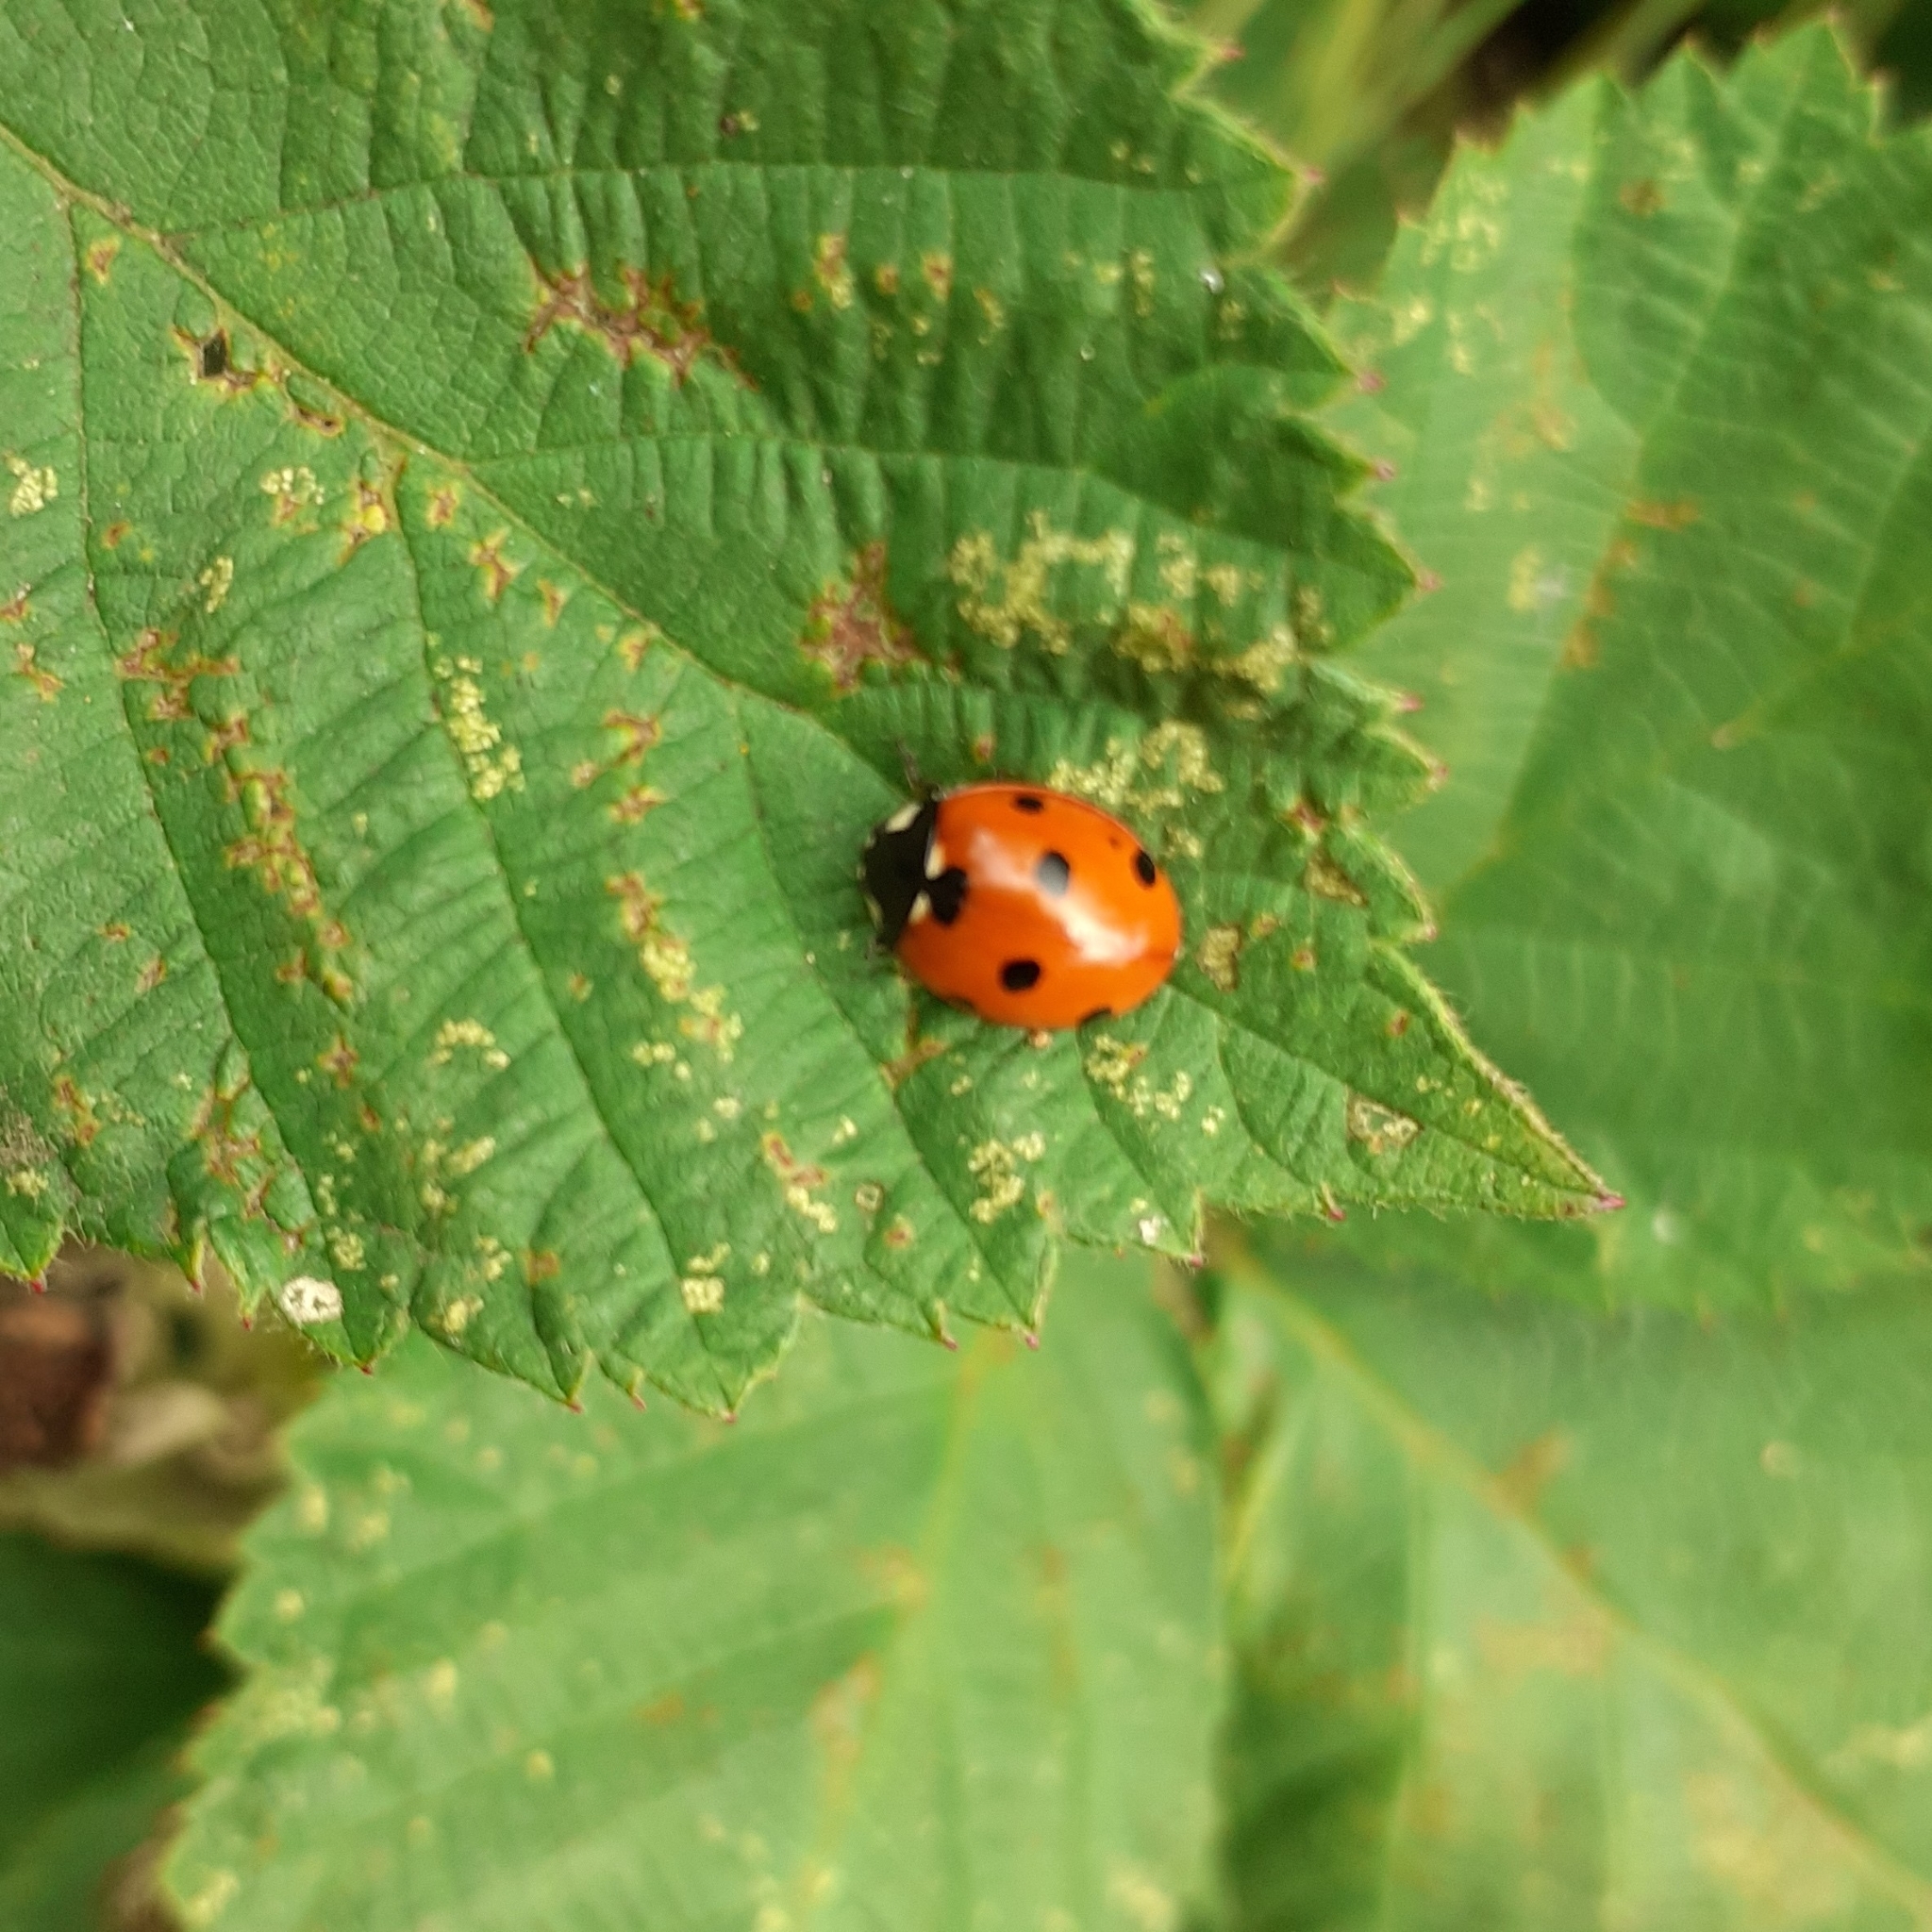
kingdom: Animalia
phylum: Arthropoda
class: Insecta
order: Coleoptera
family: Coccinellidae
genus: Coccinella
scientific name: Coccinella septempunctata
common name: Sevenspotted lady beetle
